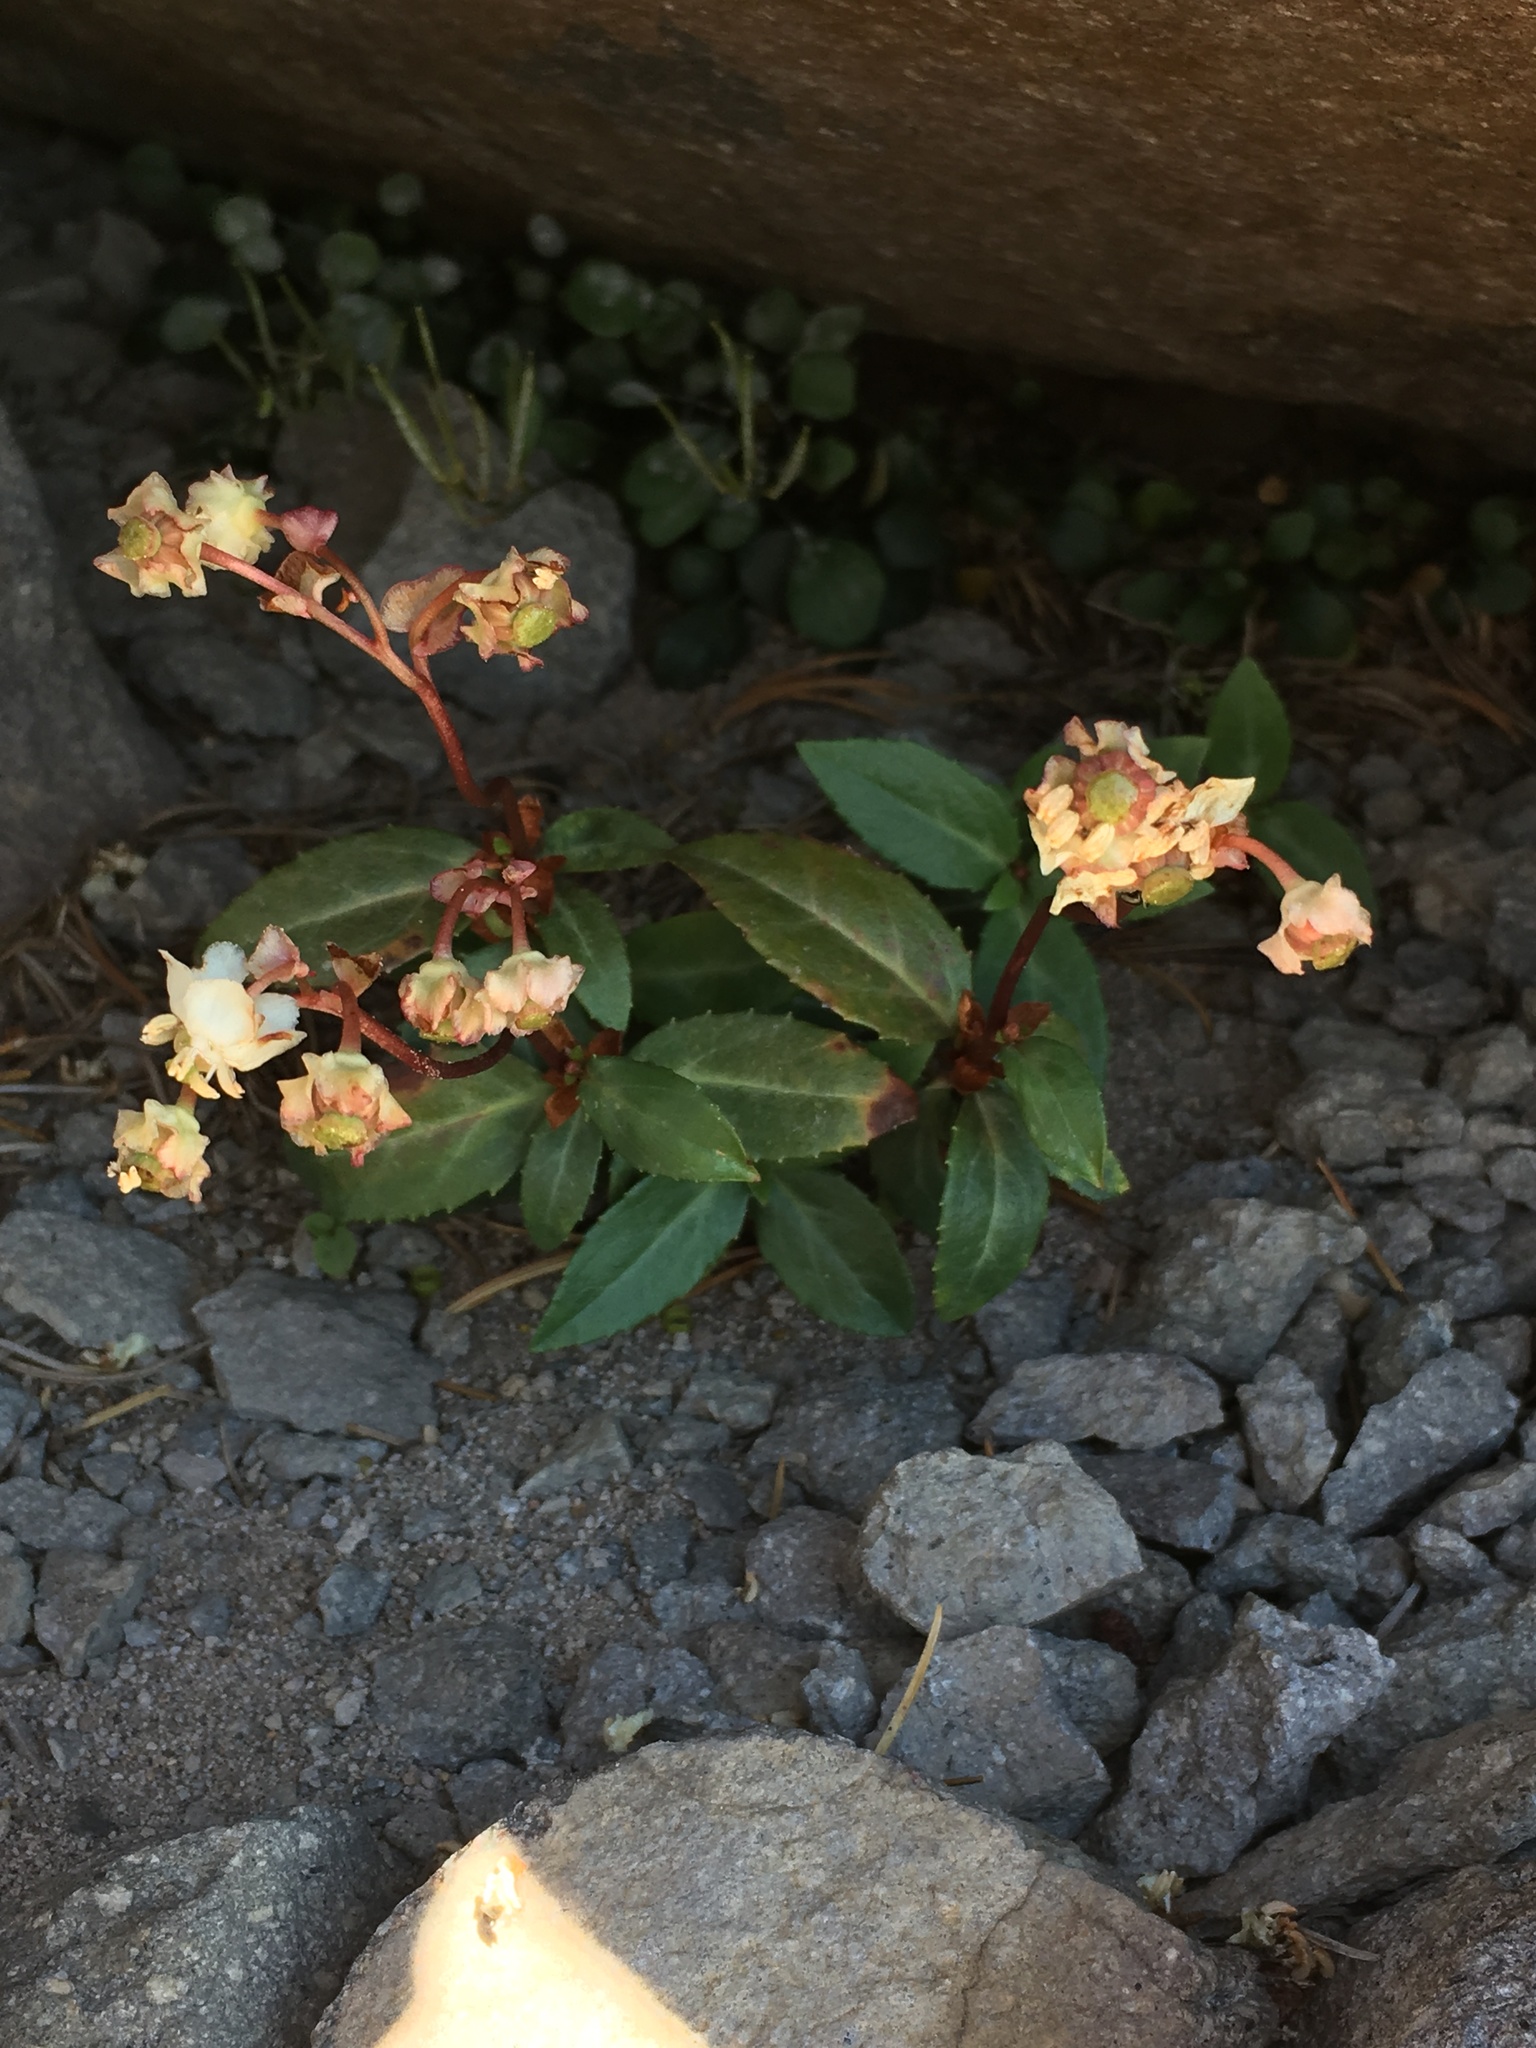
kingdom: Plantae
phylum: Tracheophyta
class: Magnoliopsida
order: Ericales
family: Ericaceae
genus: Chimaphila
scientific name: Chimaphila menziesii
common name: Menzies' pipsissewa
